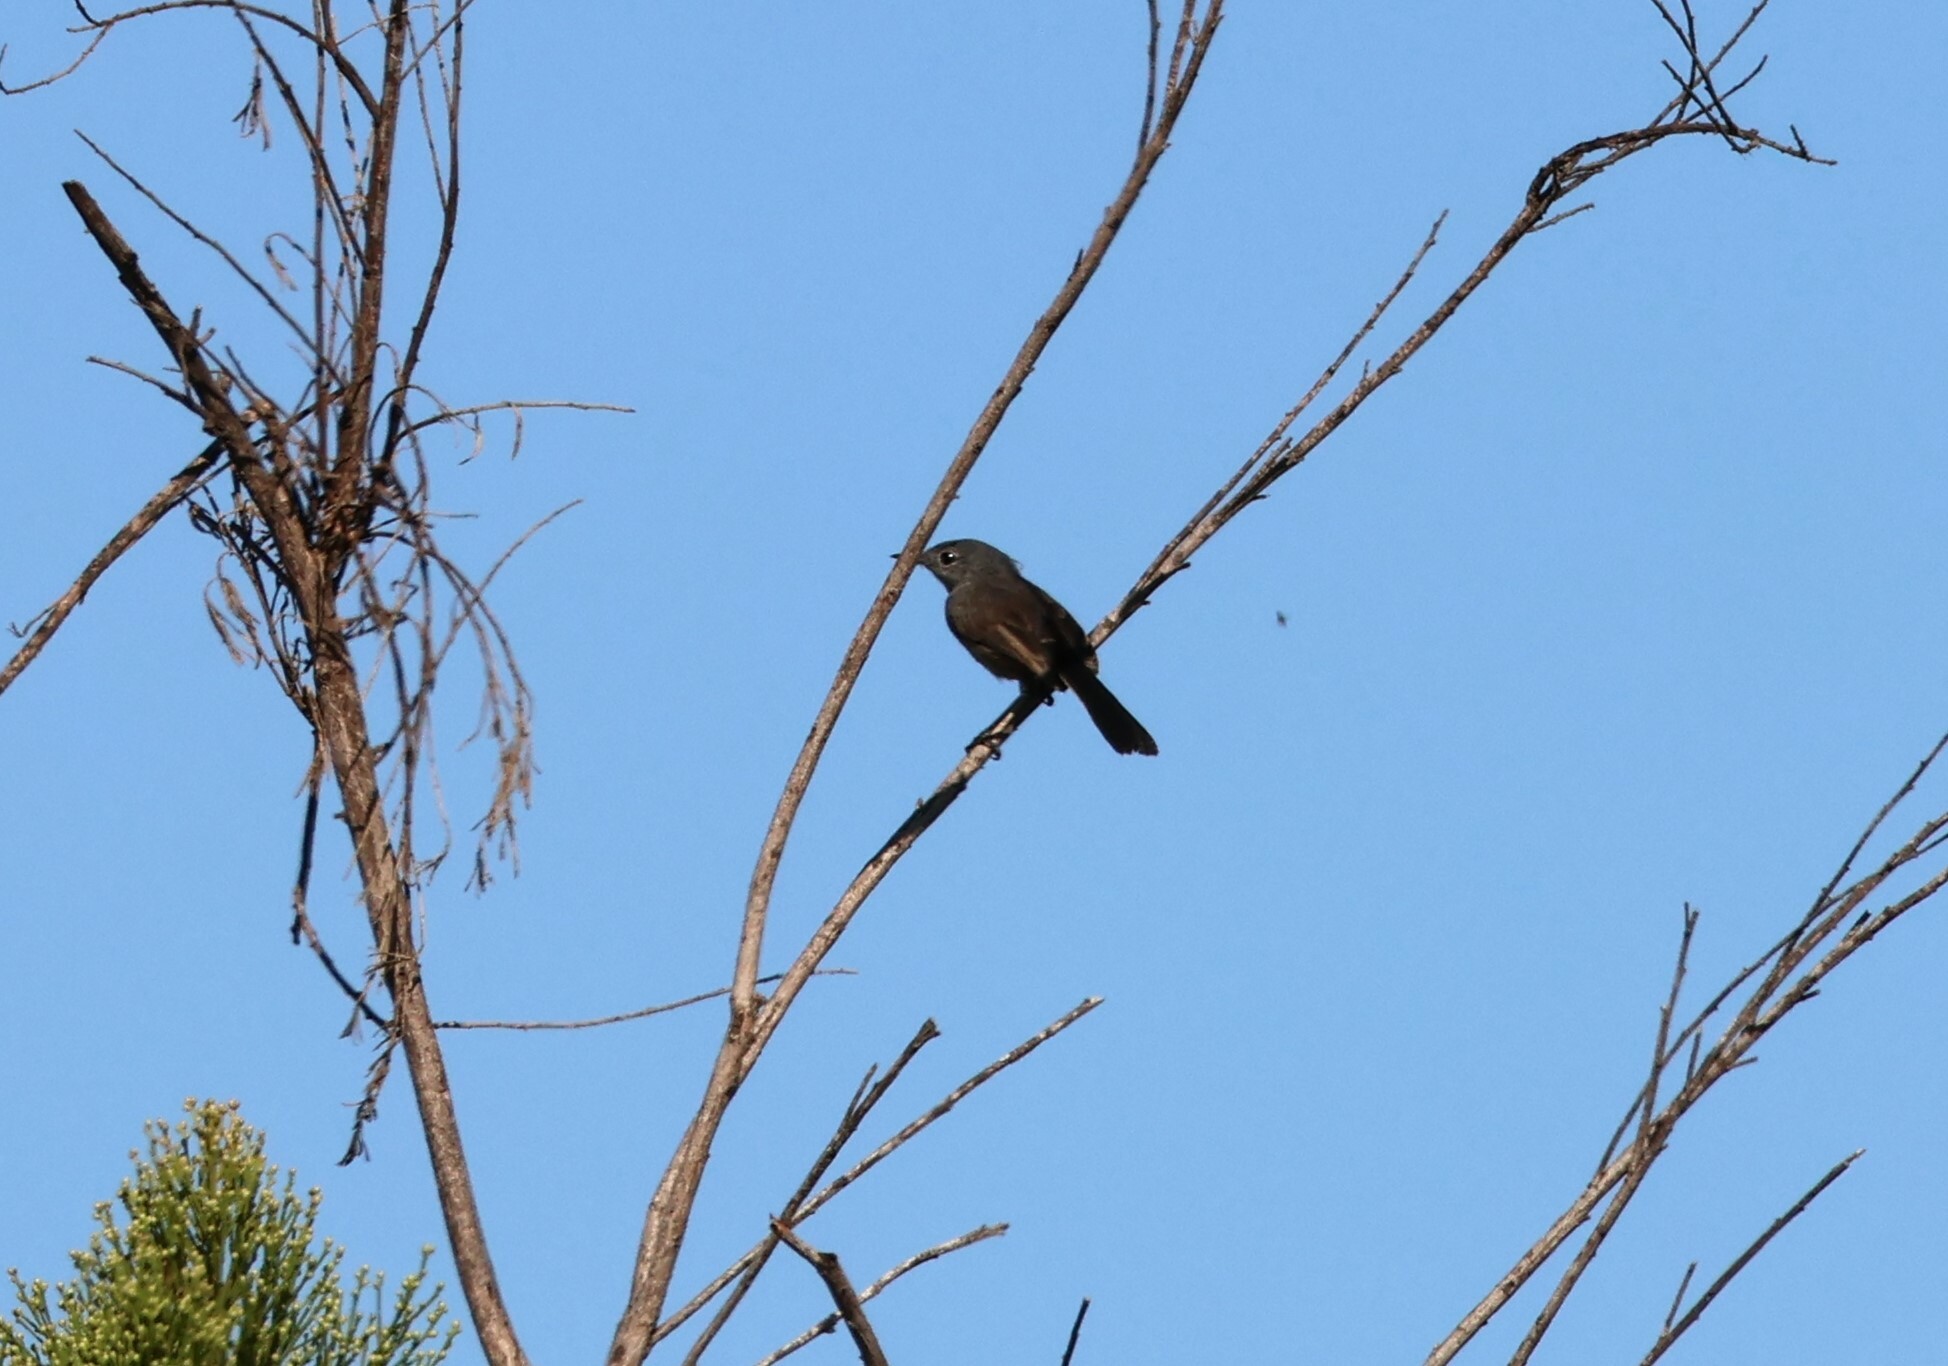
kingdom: Animalia
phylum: Chordata
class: Aves
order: Passeriformes
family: Polioptilidae
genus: Polioptila
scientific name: Polioptila californica
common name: California gnatcatcher
